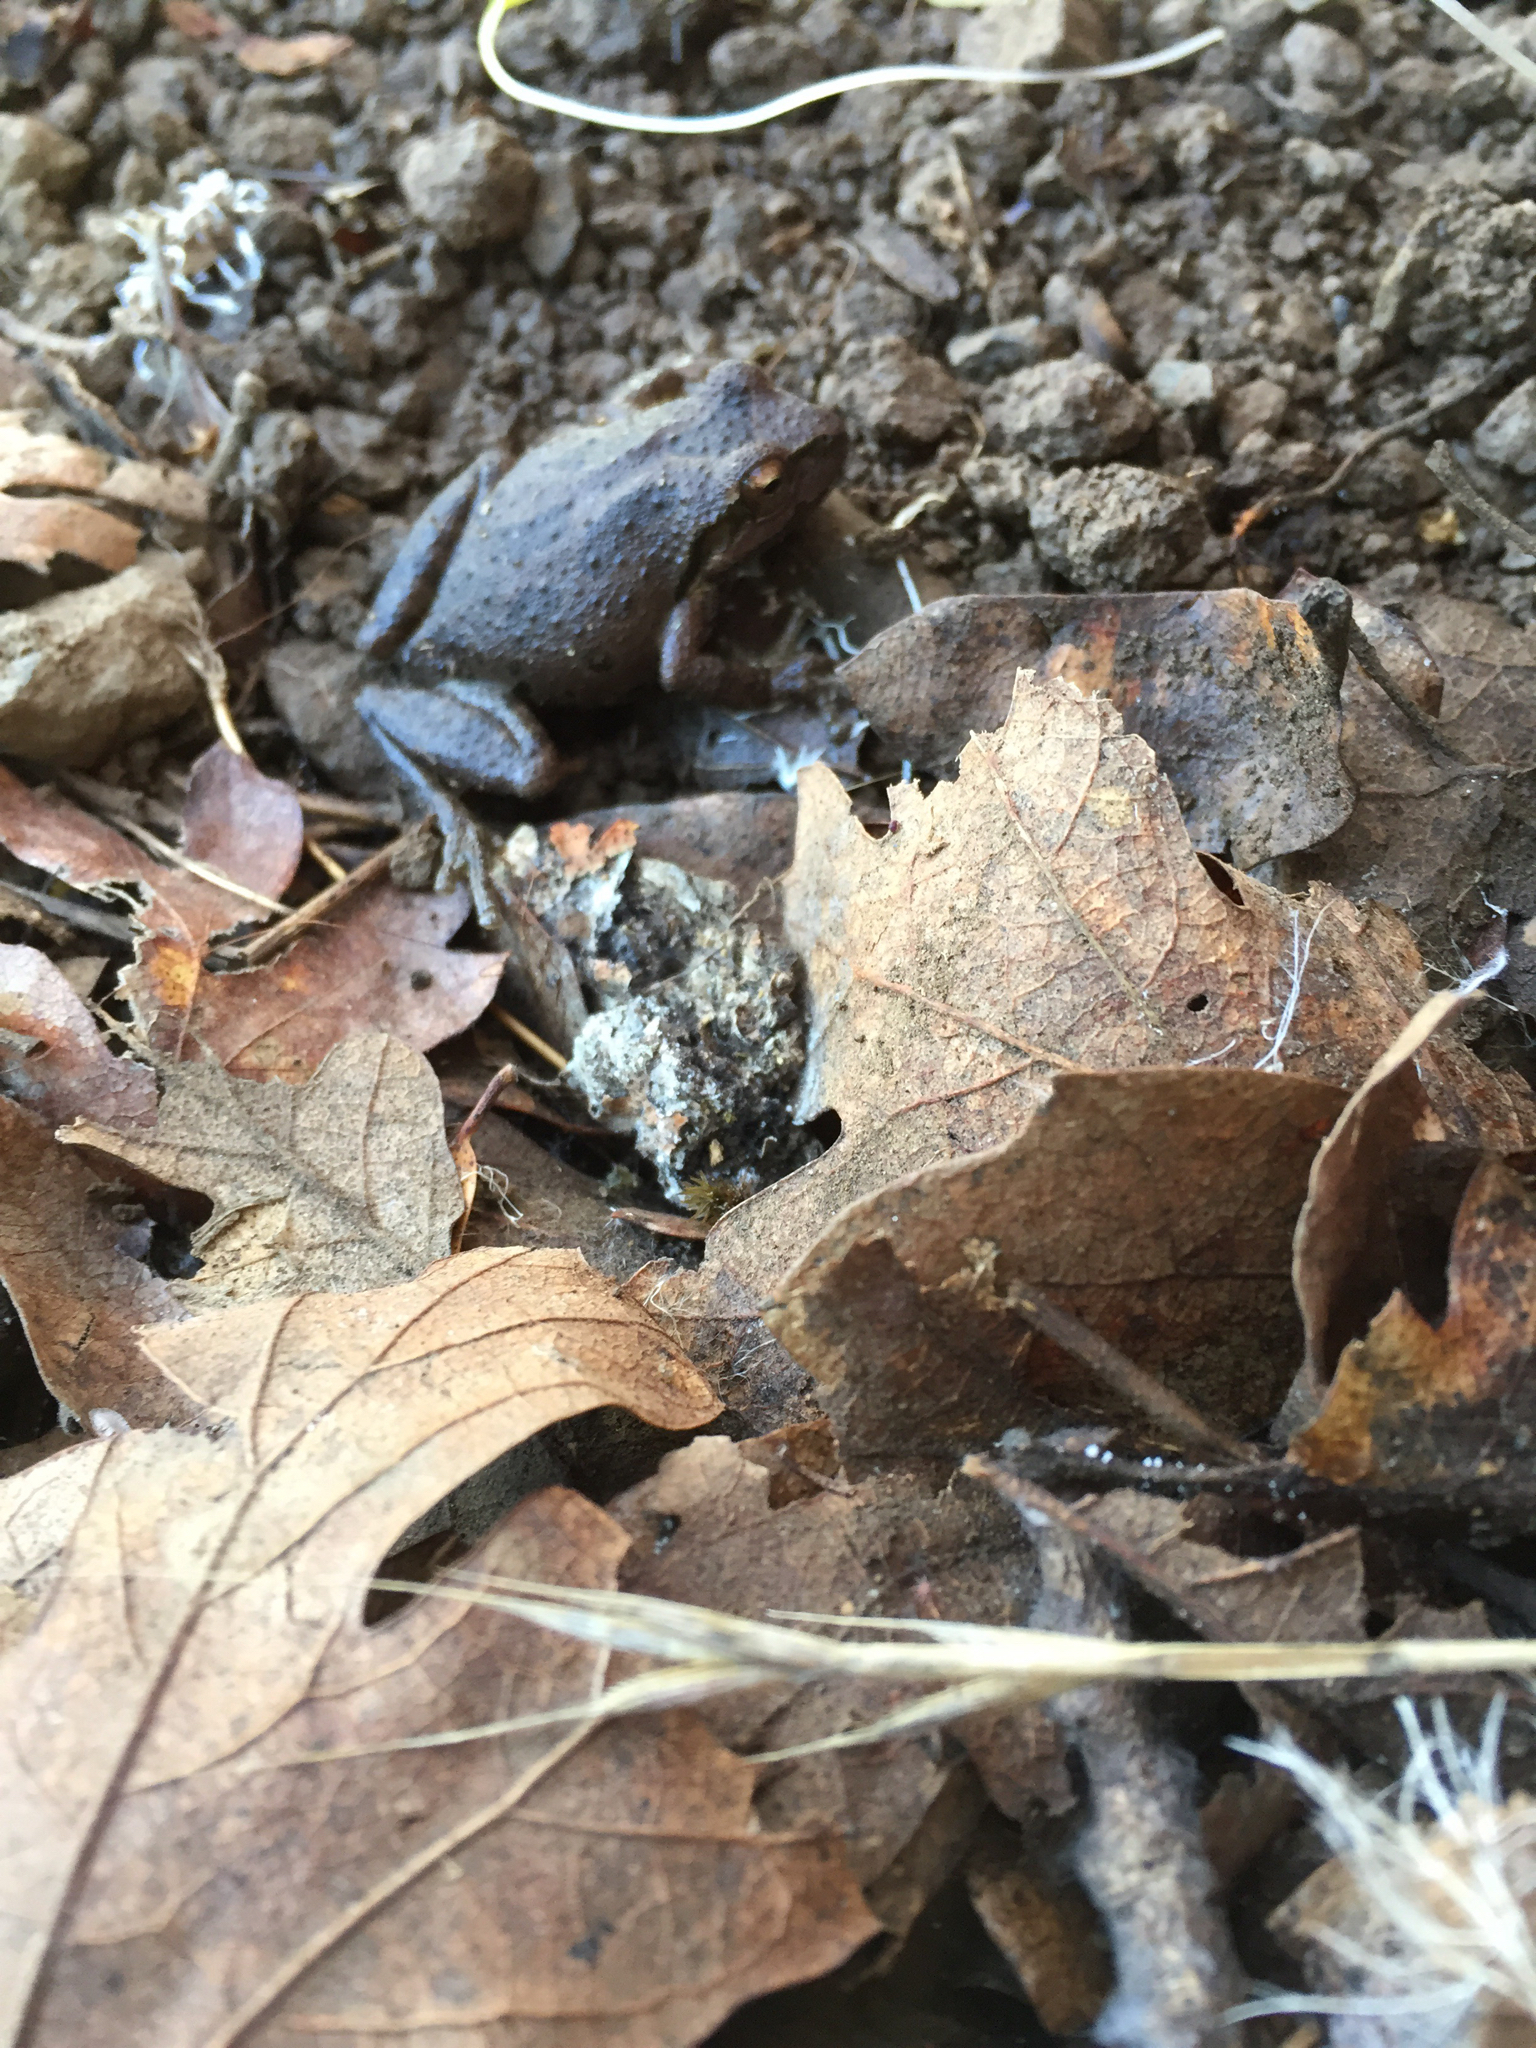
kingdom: Animalia
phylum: Chordata
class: Amphibia
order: Anura
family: Hylidae
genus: Pseudacris
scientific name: Pseudacris regilla
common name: Pacific chorus frog
